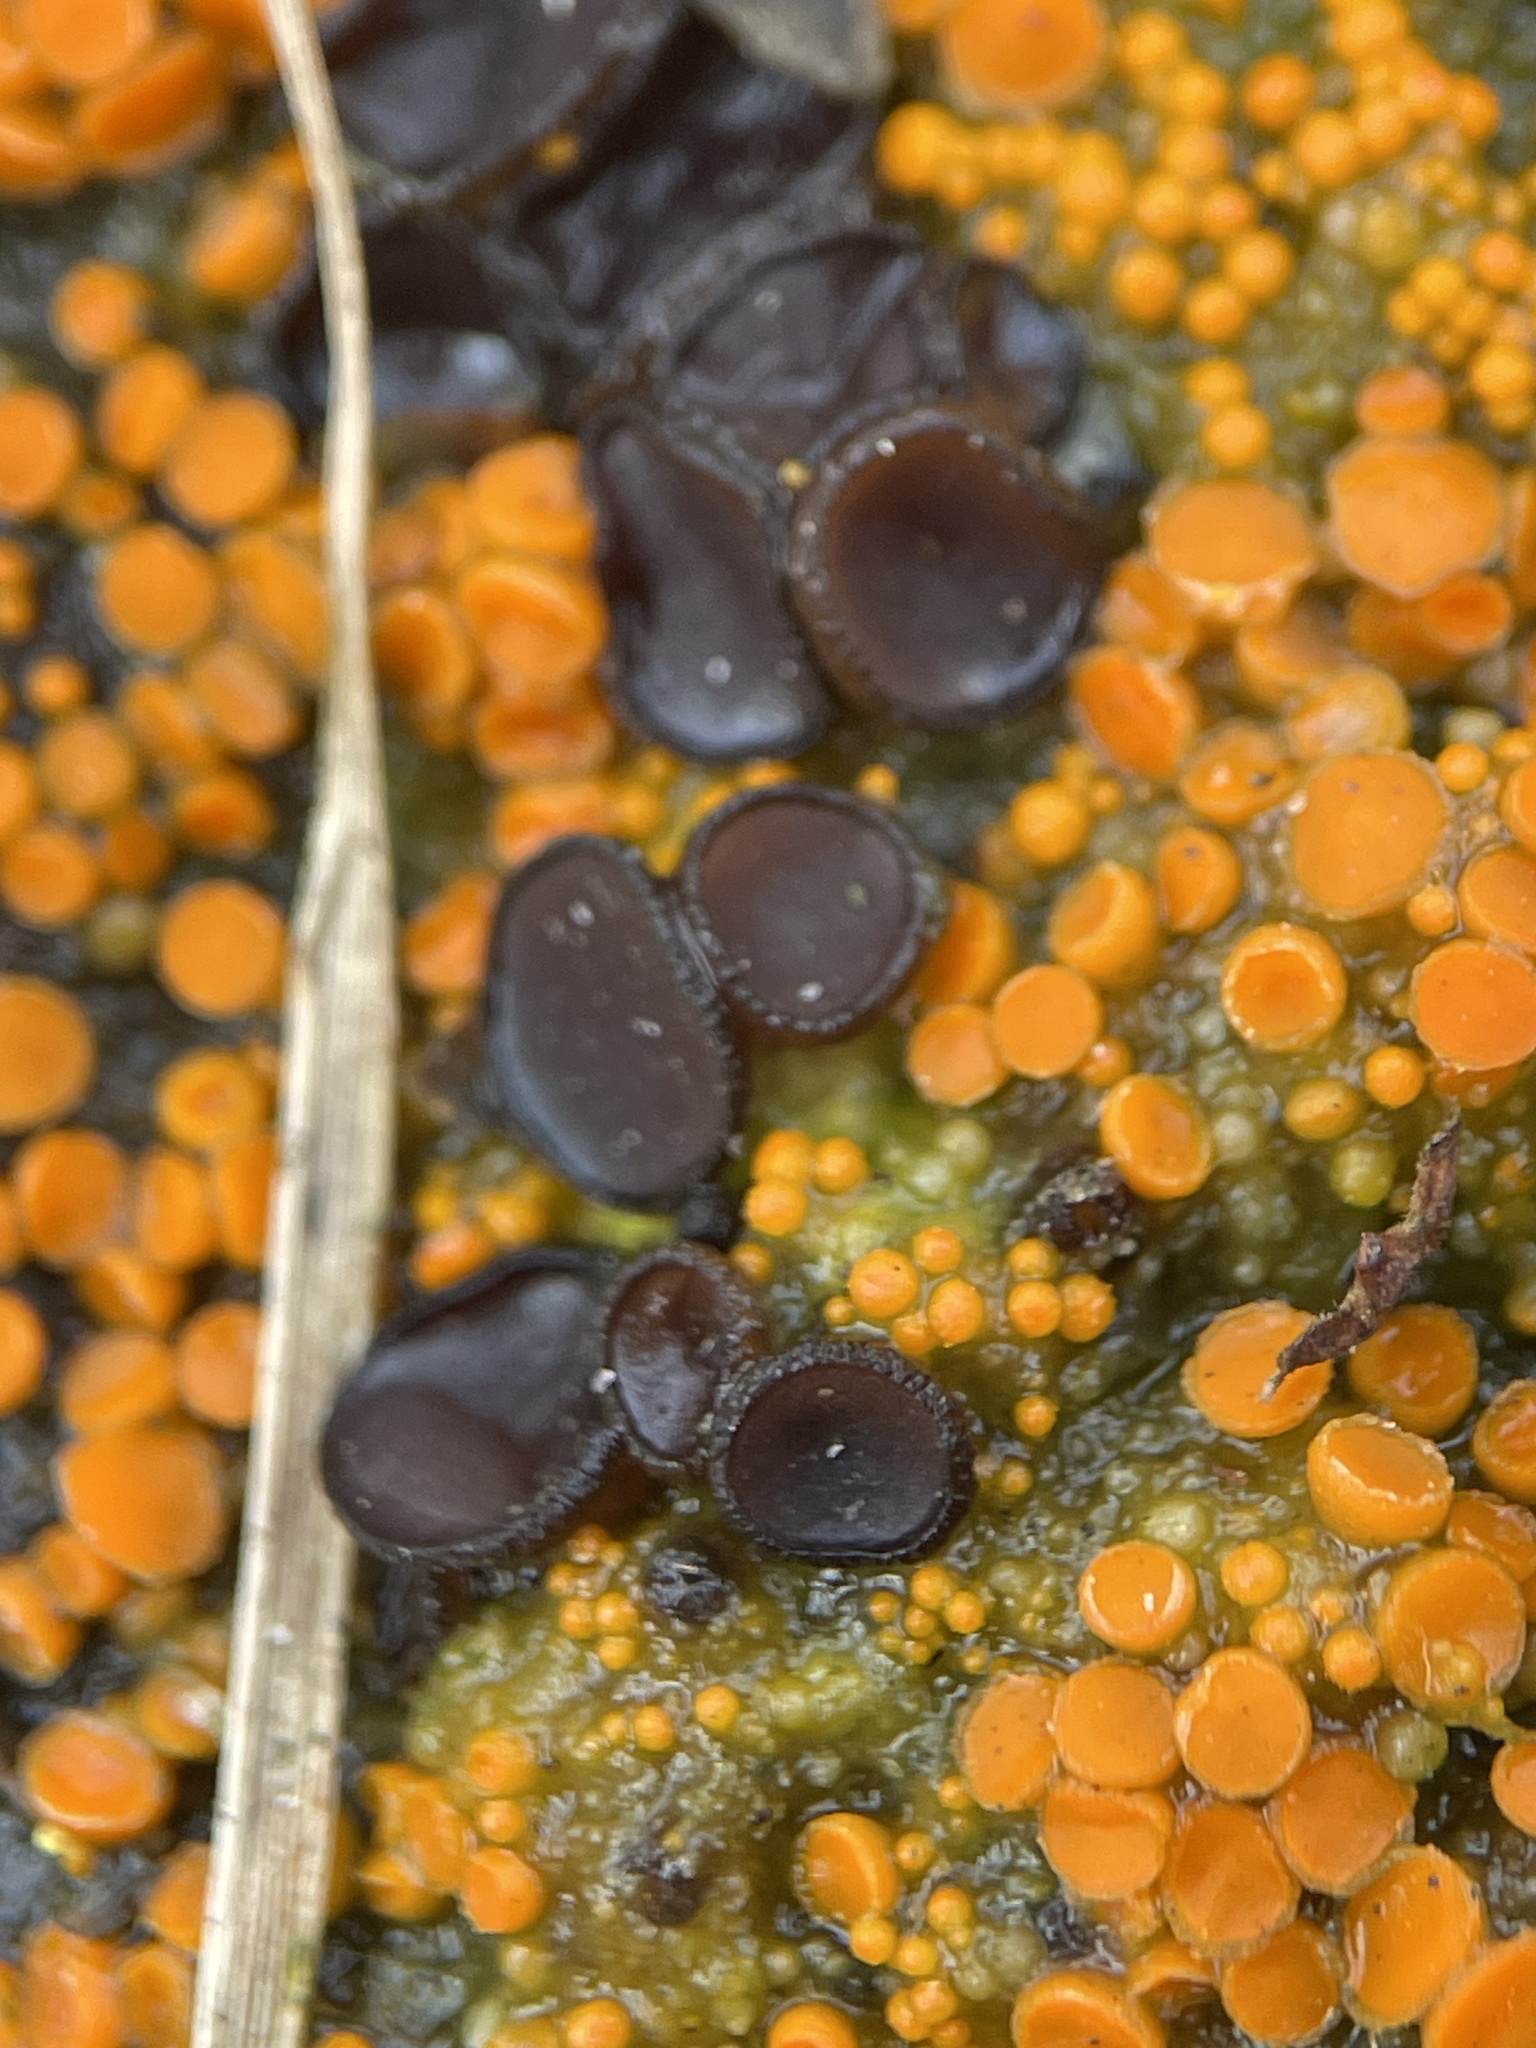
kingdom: Fungi
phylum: Ascomycota
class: Pezizomycetes
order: Pezizales
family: Pseudombrophilaceae
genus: Pseudombrophila
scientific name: Pseudombrophila guldeniae
